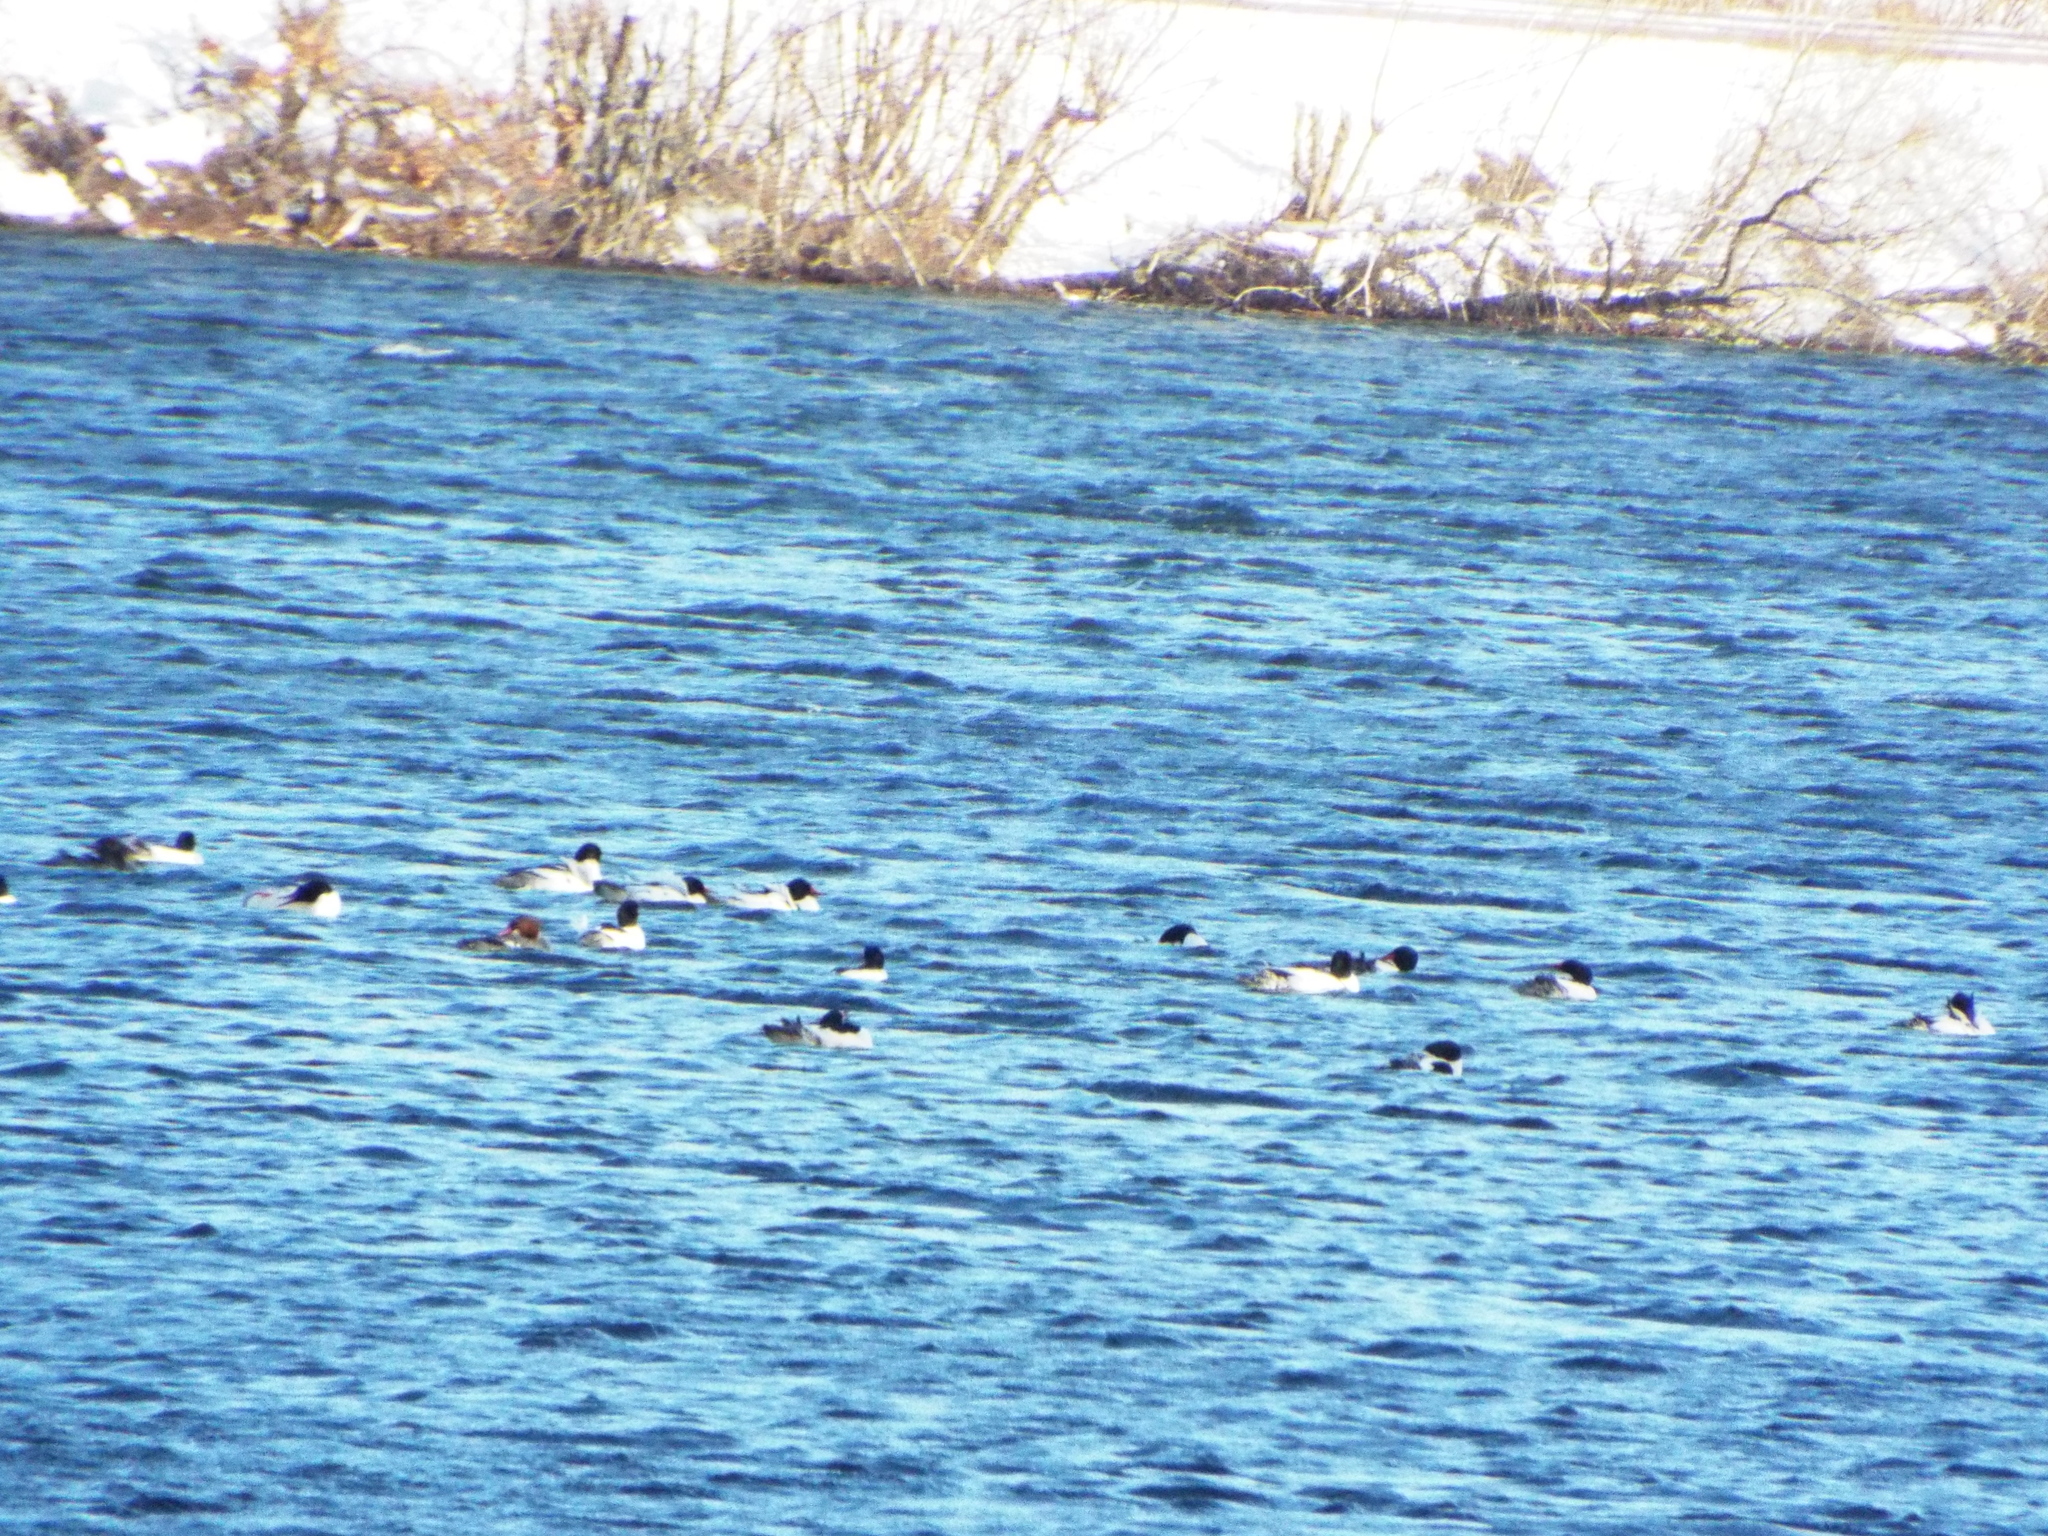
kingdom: Animalia
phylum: Chordata
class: Aves
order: Anseriformes
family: Anatidae
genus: Mergus
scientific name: Mergus merganser
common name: Common merganser
